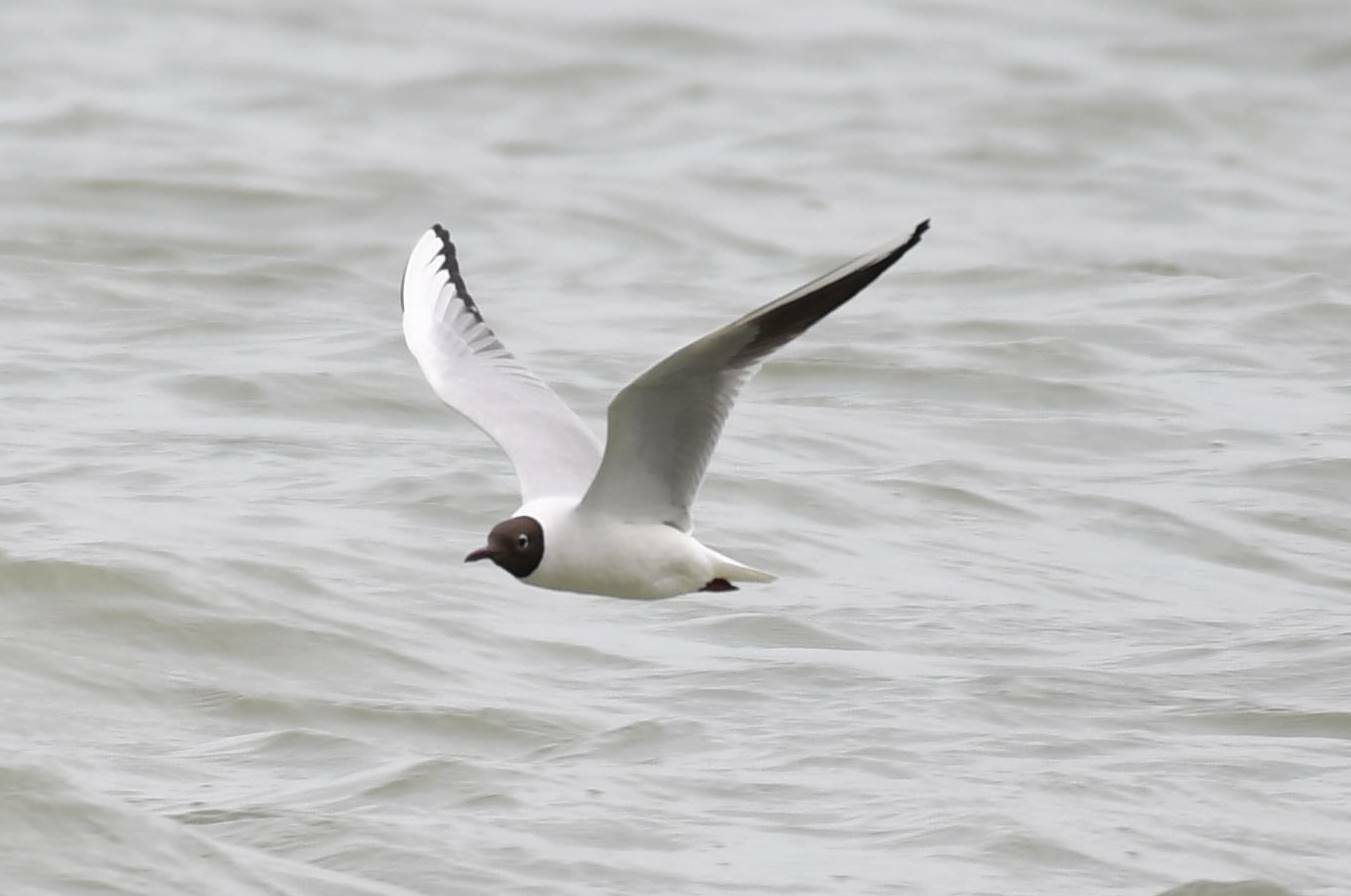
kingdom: Animalia
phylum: Chordata
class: Aves
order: Charadriiformes
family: Laridae
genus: Chroicocephalus
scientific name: Chroicocephalus ridibundus
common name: Black-headed gull
